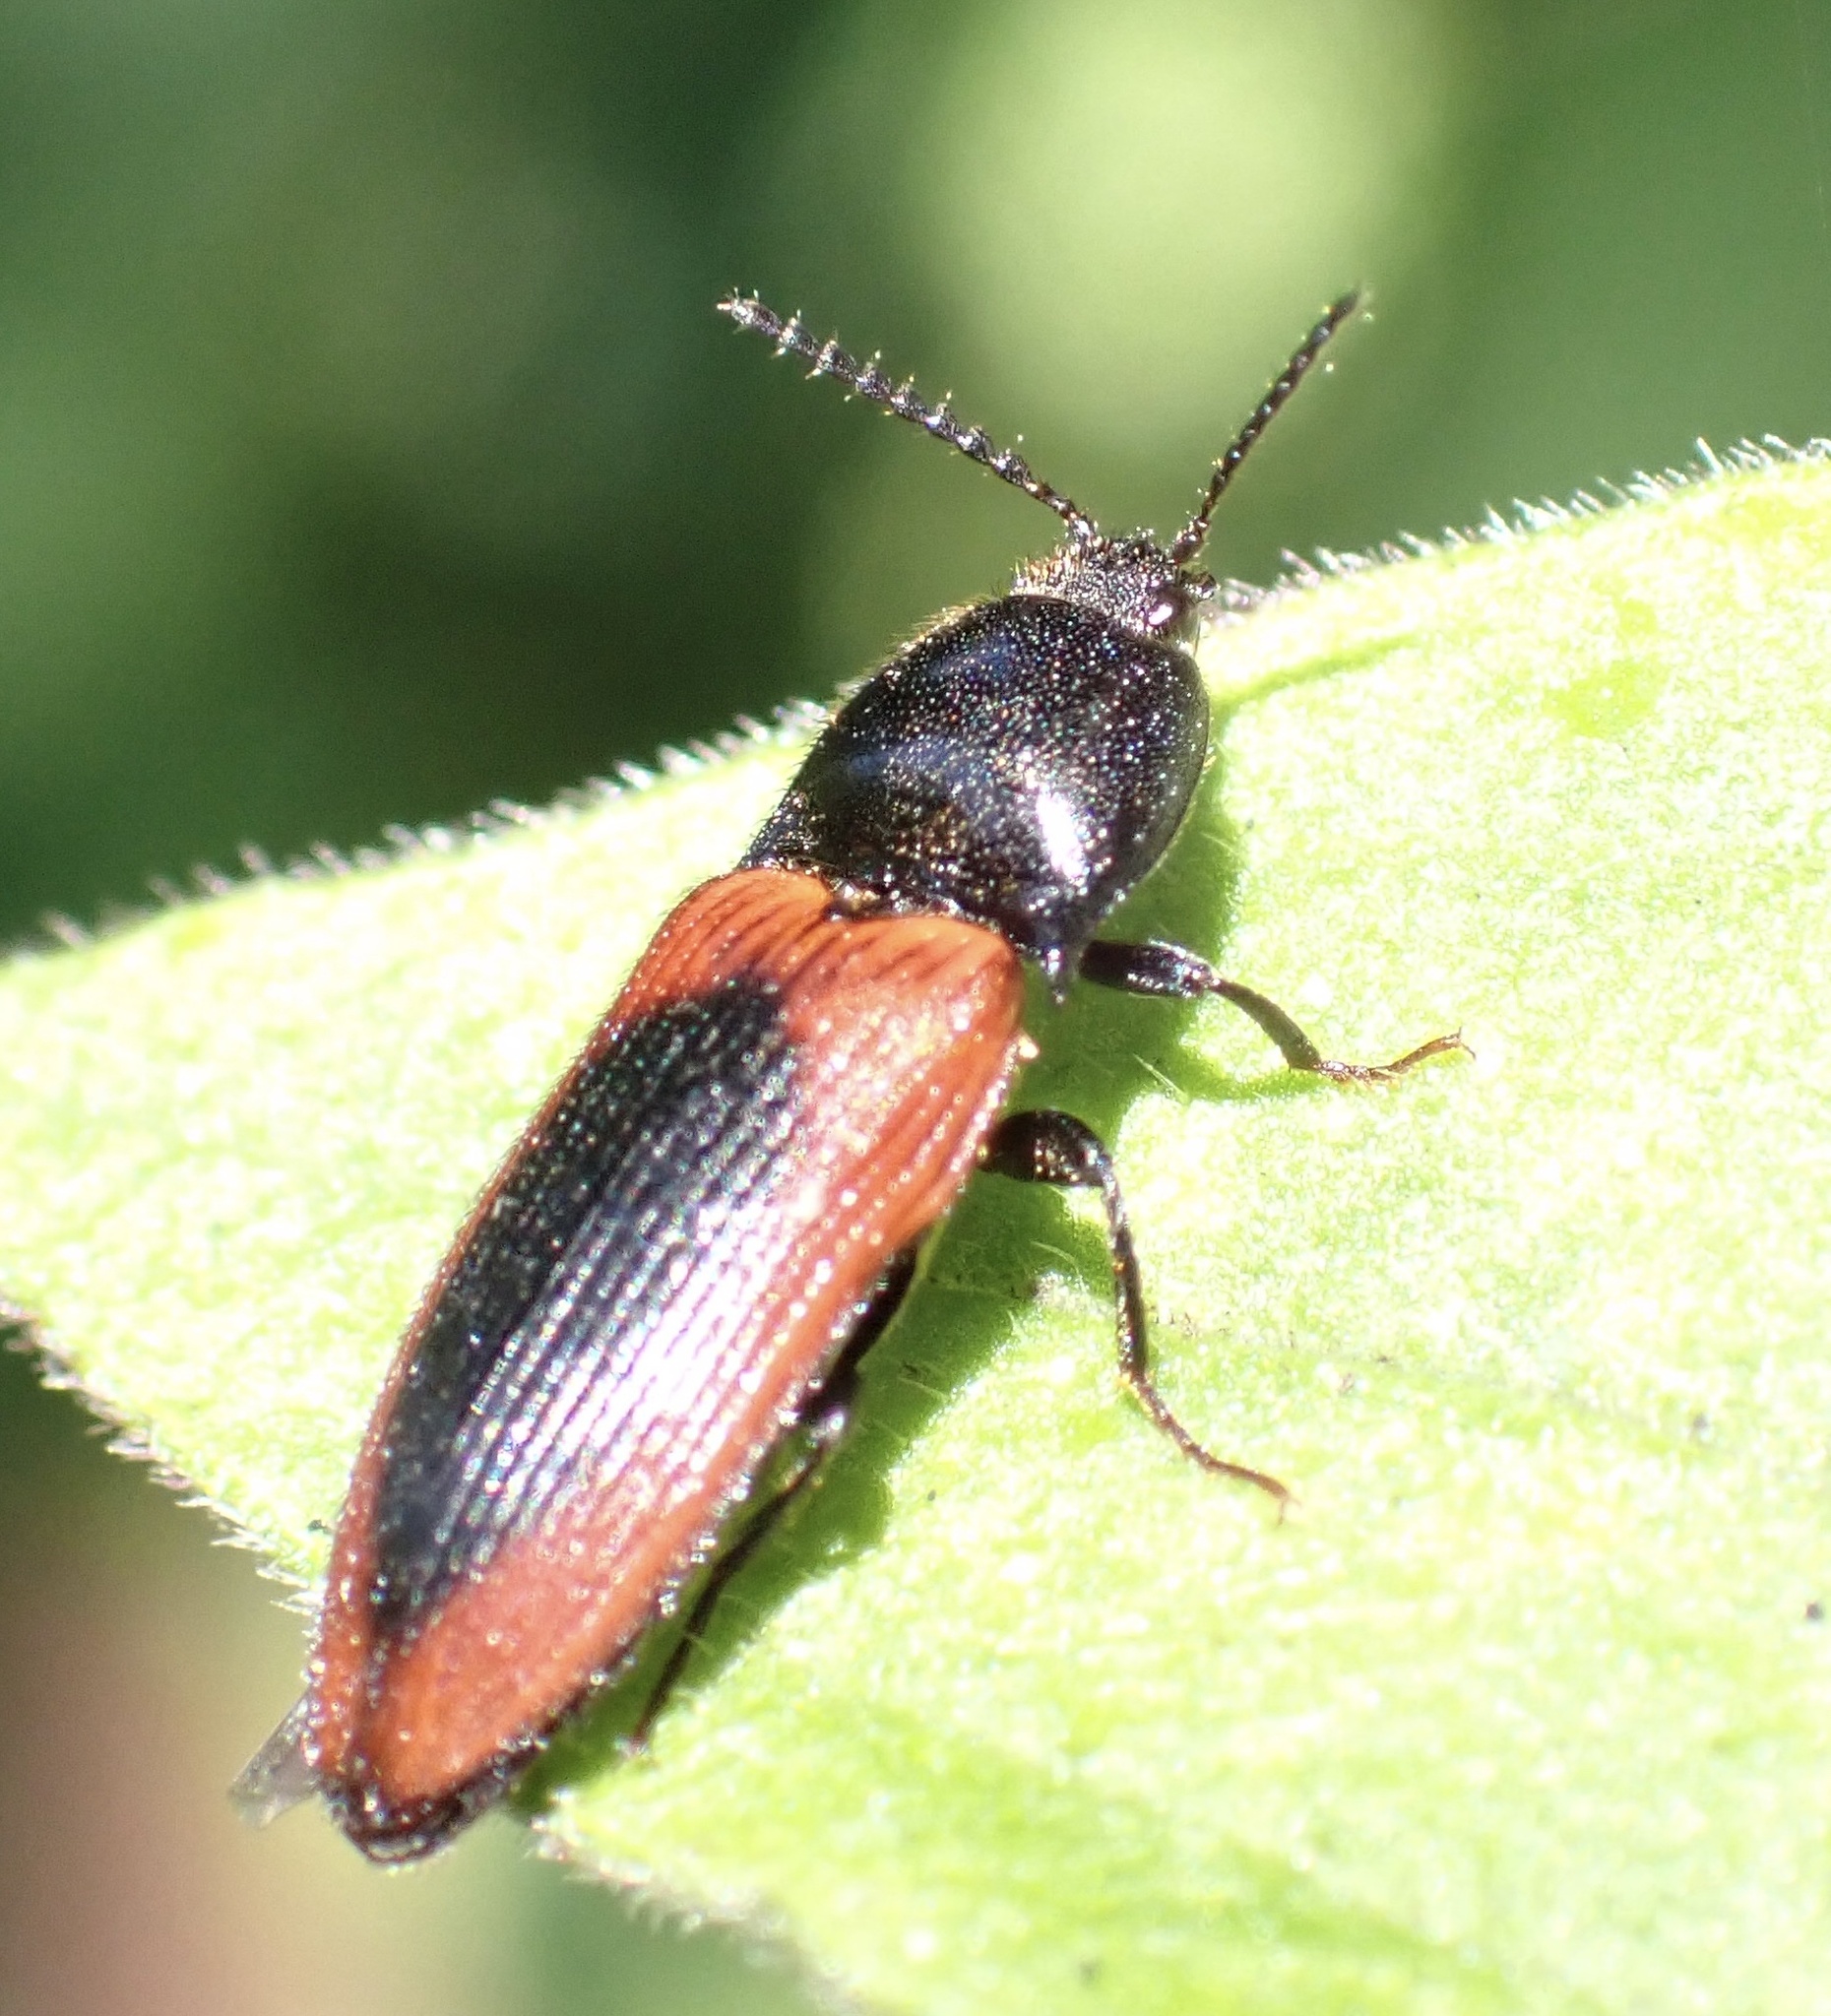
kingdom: Animalia
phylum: Arthropoda
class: Insecta
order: Coleoptera
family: Elateridae
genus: Ampedus
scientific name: Ampedus sanguinolentus
